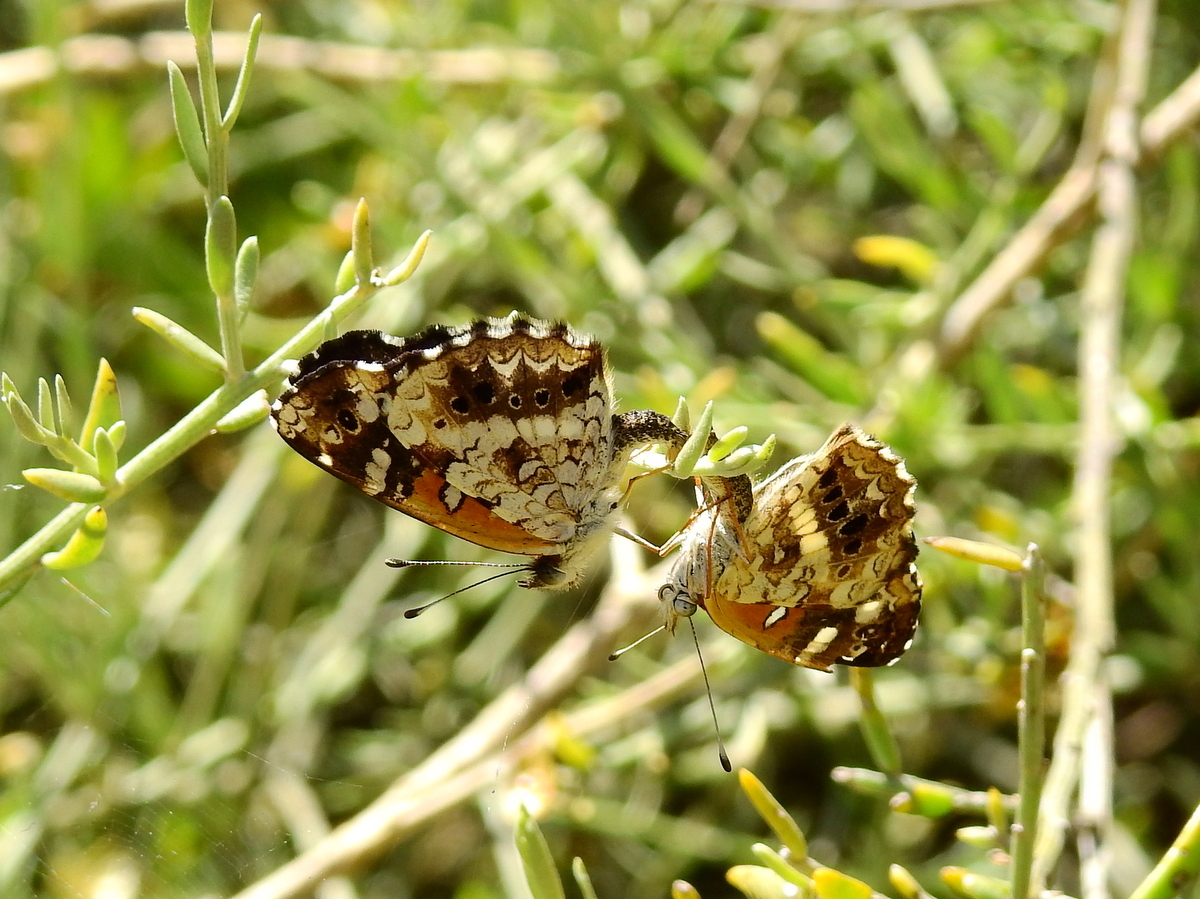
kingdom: Animalia
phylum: Arthropoda
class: Insecta
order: Lepidoptera
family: Nymphalidae
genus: Ortilia
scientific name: Ortilia ithra
